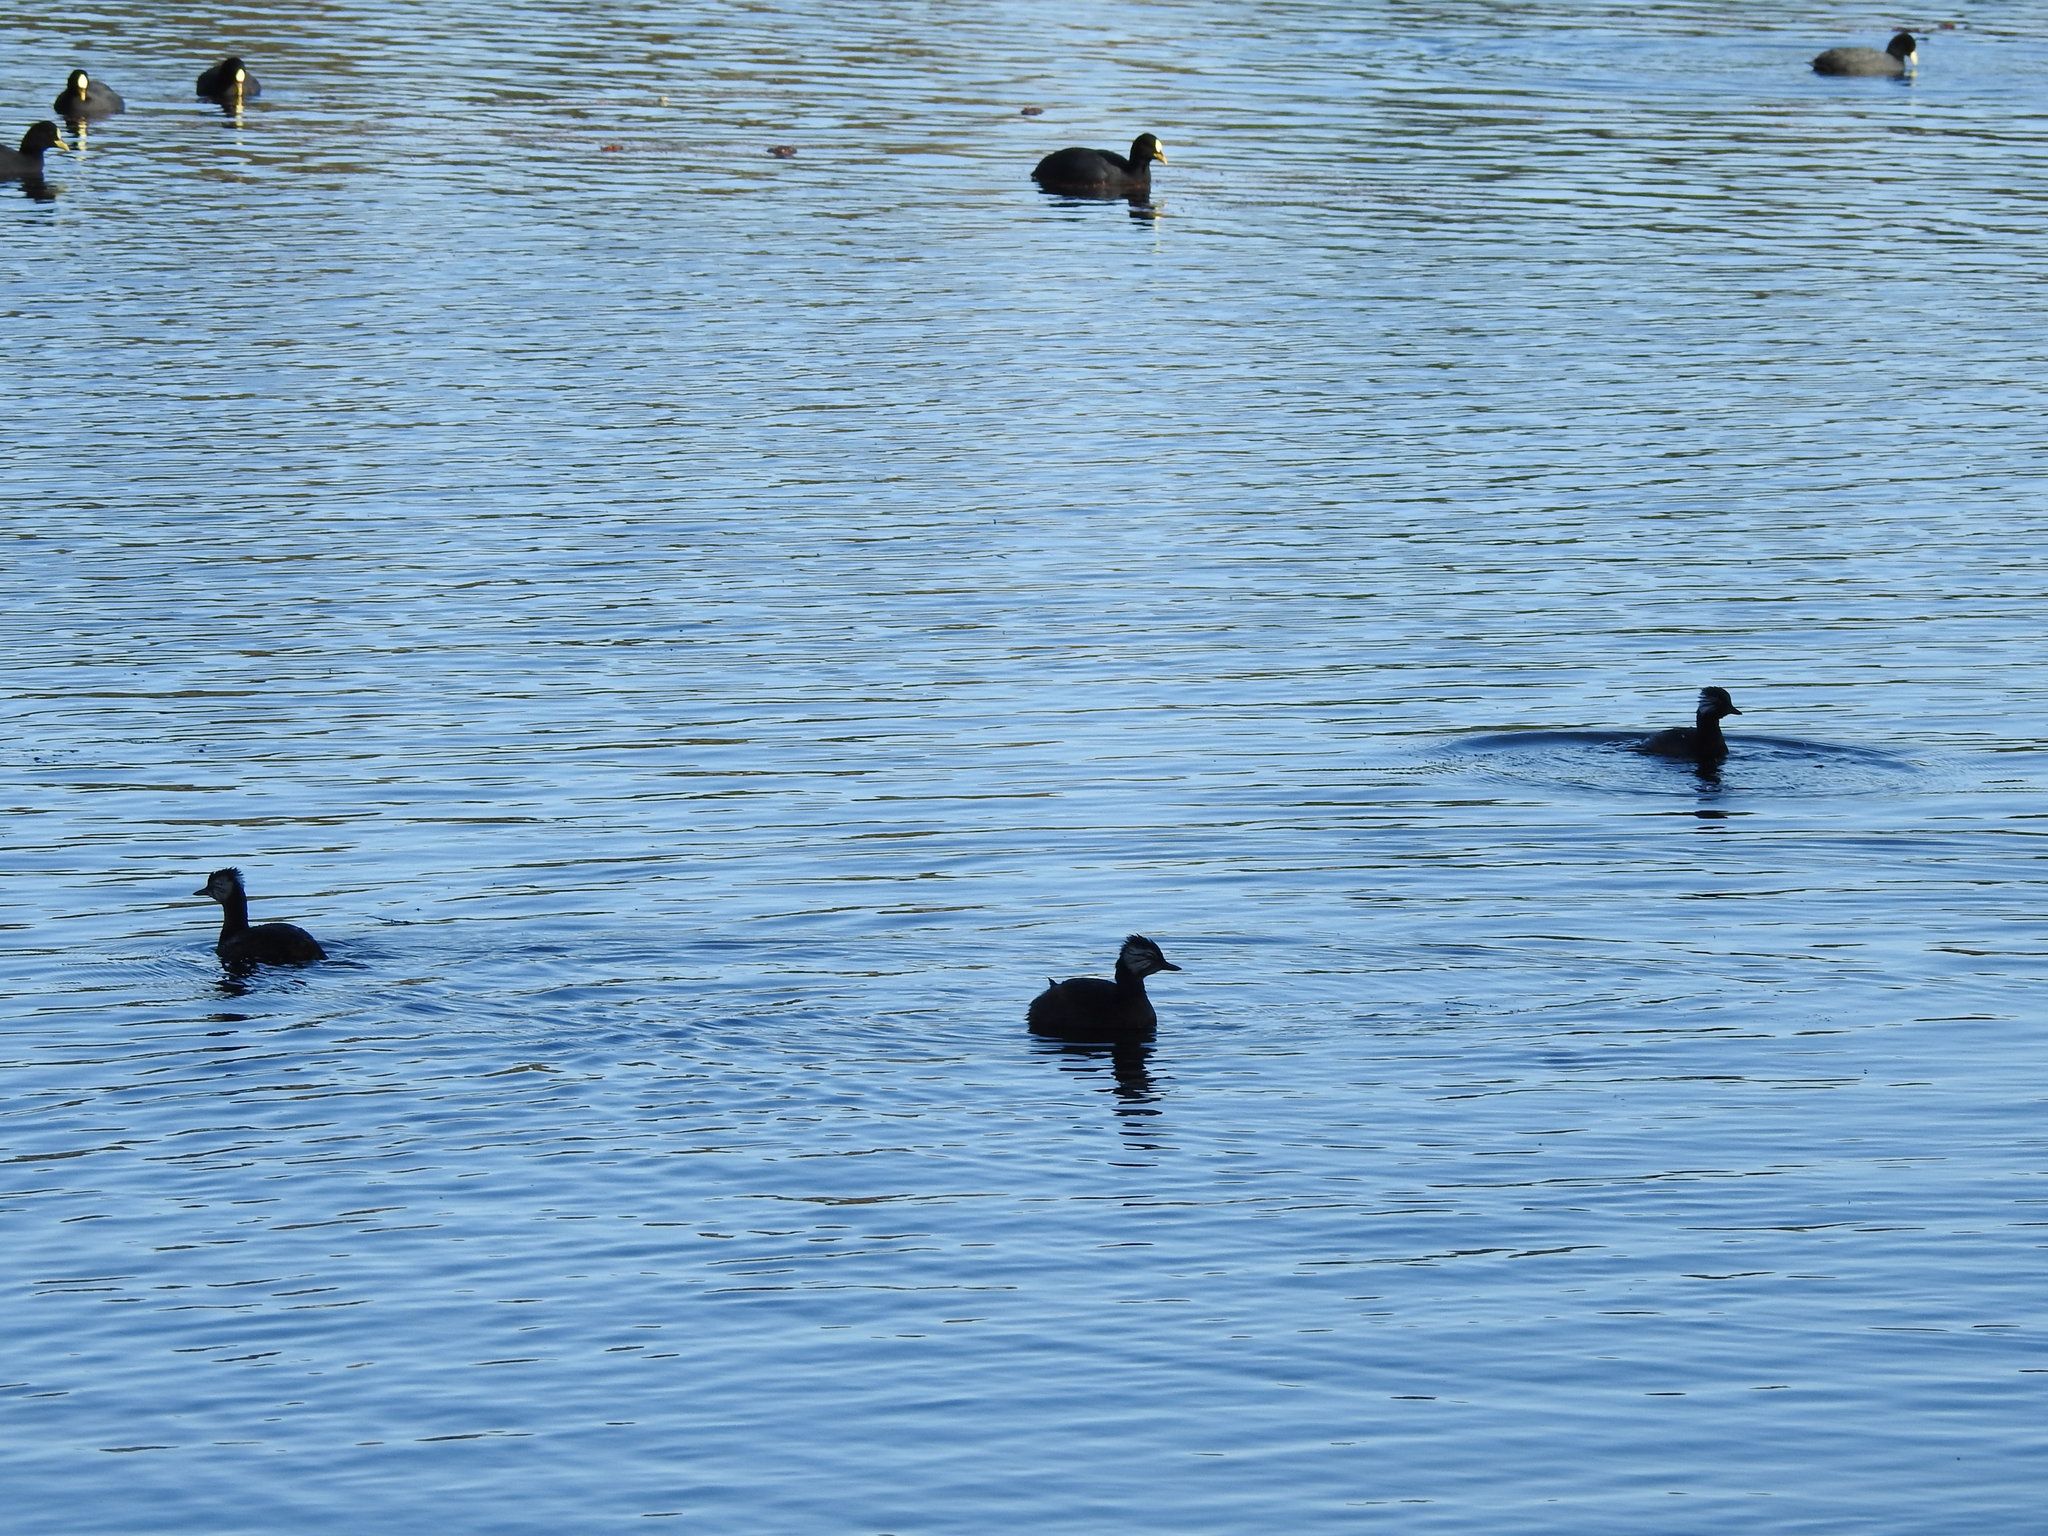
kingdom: Animalia
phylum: Chordata
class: Aves
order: Podicipediformes
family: Podicipedidae
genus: Rollandia
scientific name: Rollandia rolland
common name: White-tufted grebe
